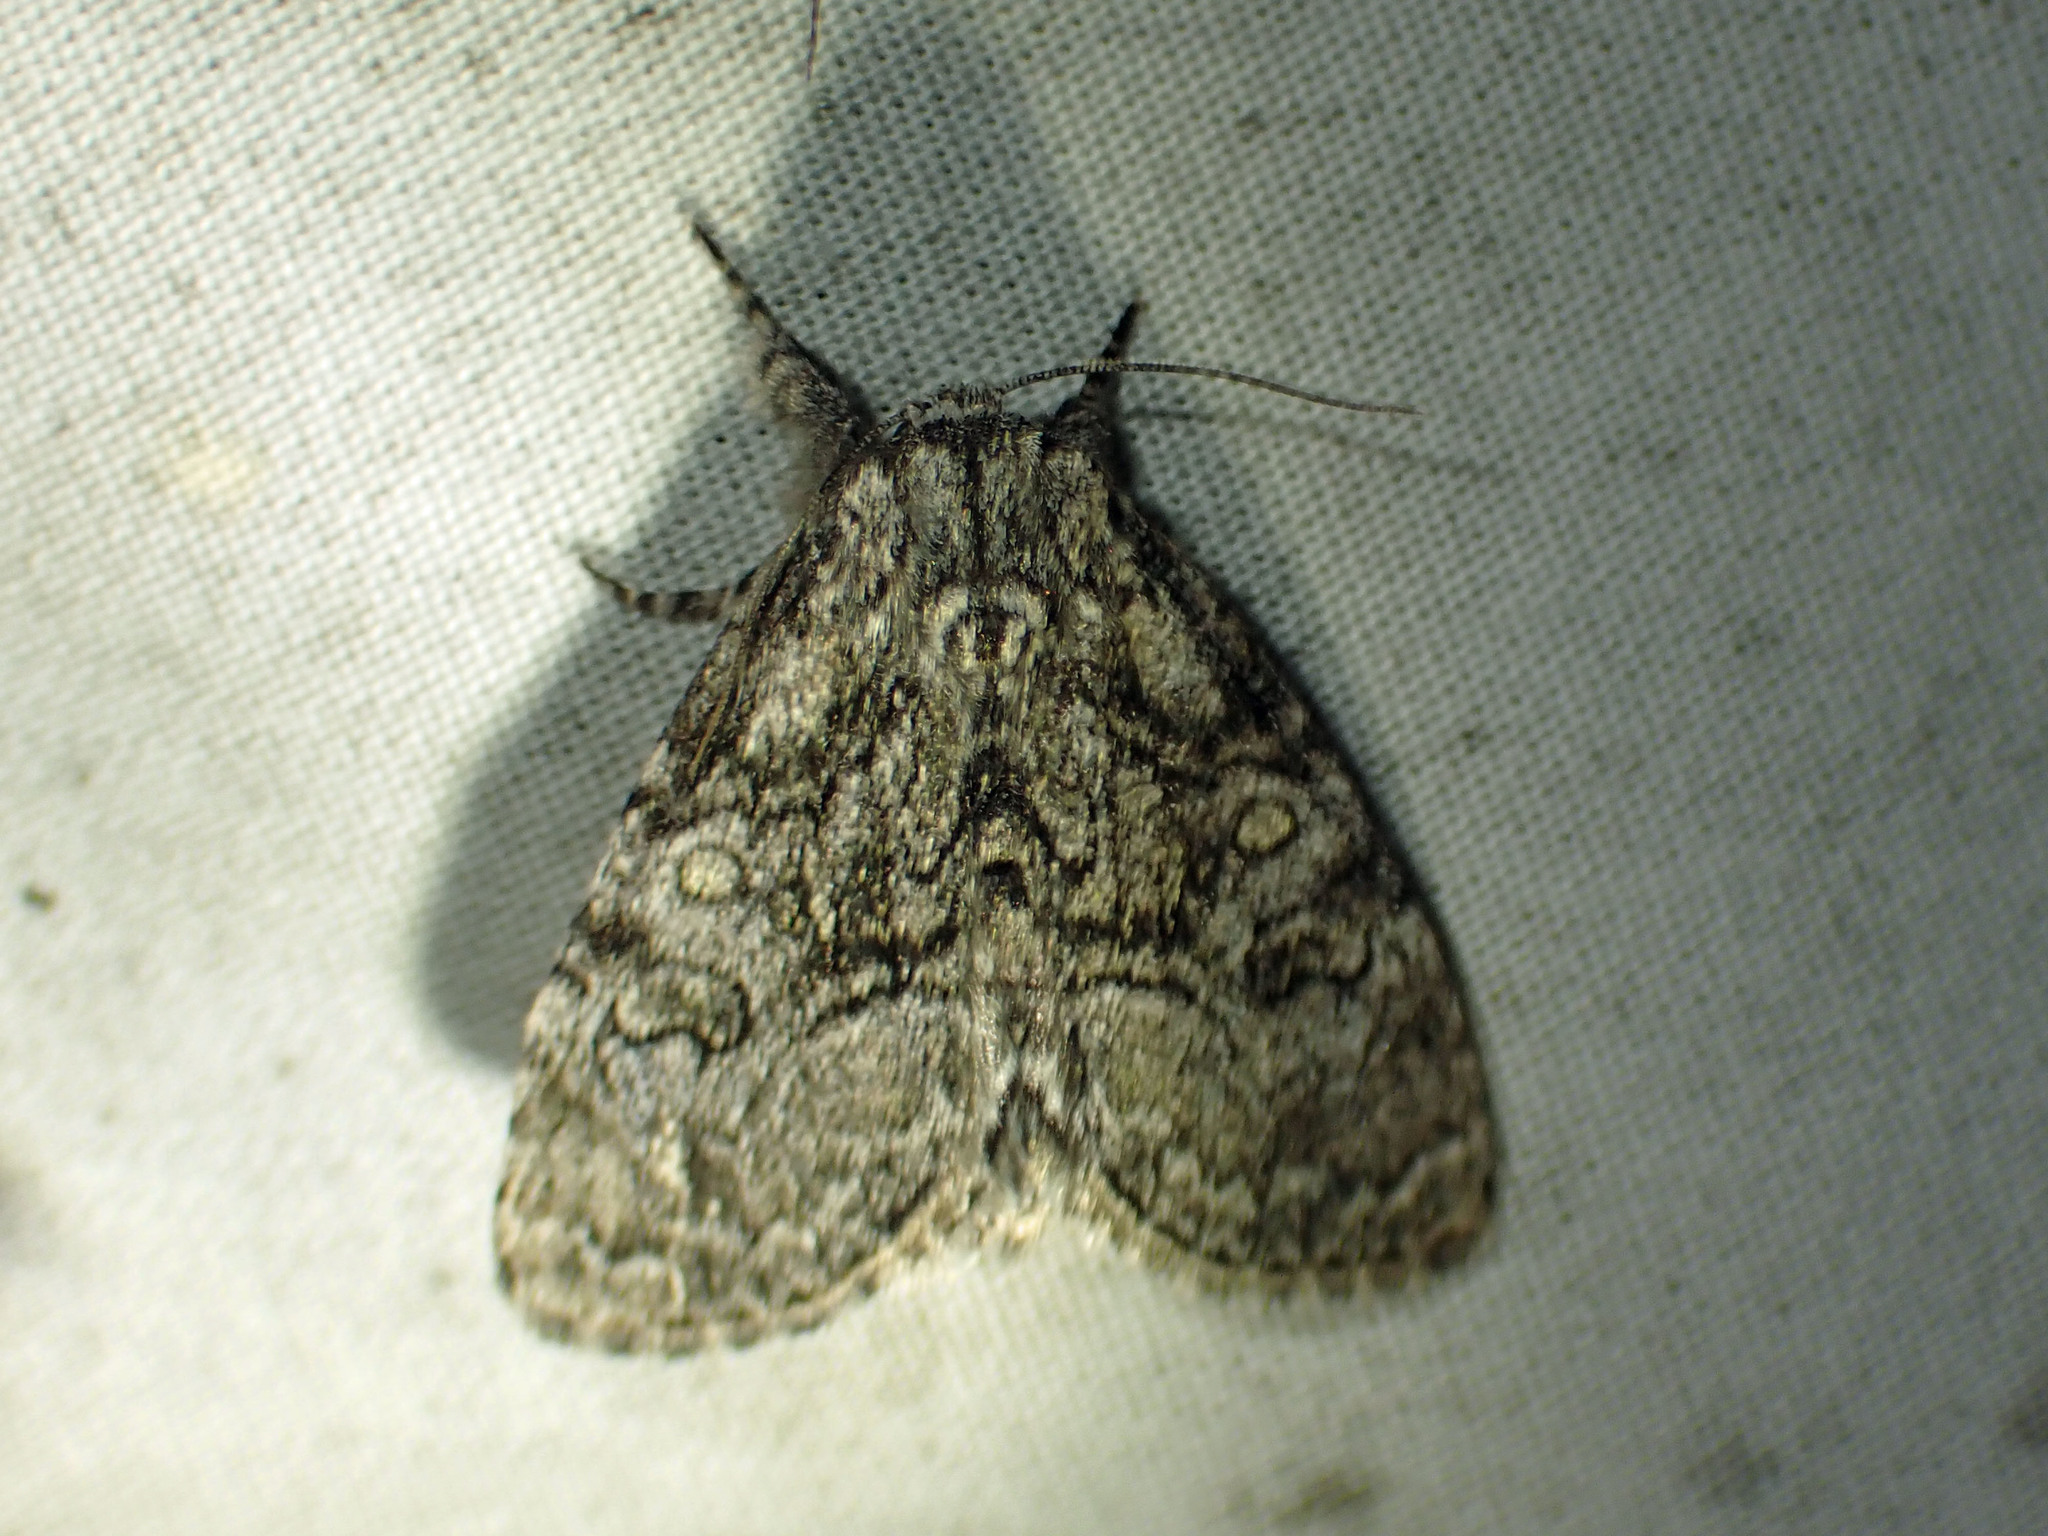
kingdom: Animalia
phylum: Arthropoda
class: Insecta
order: Lepidoptera
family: Noctuidae
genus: Raphia
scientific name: Raphia frater
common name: Brother
